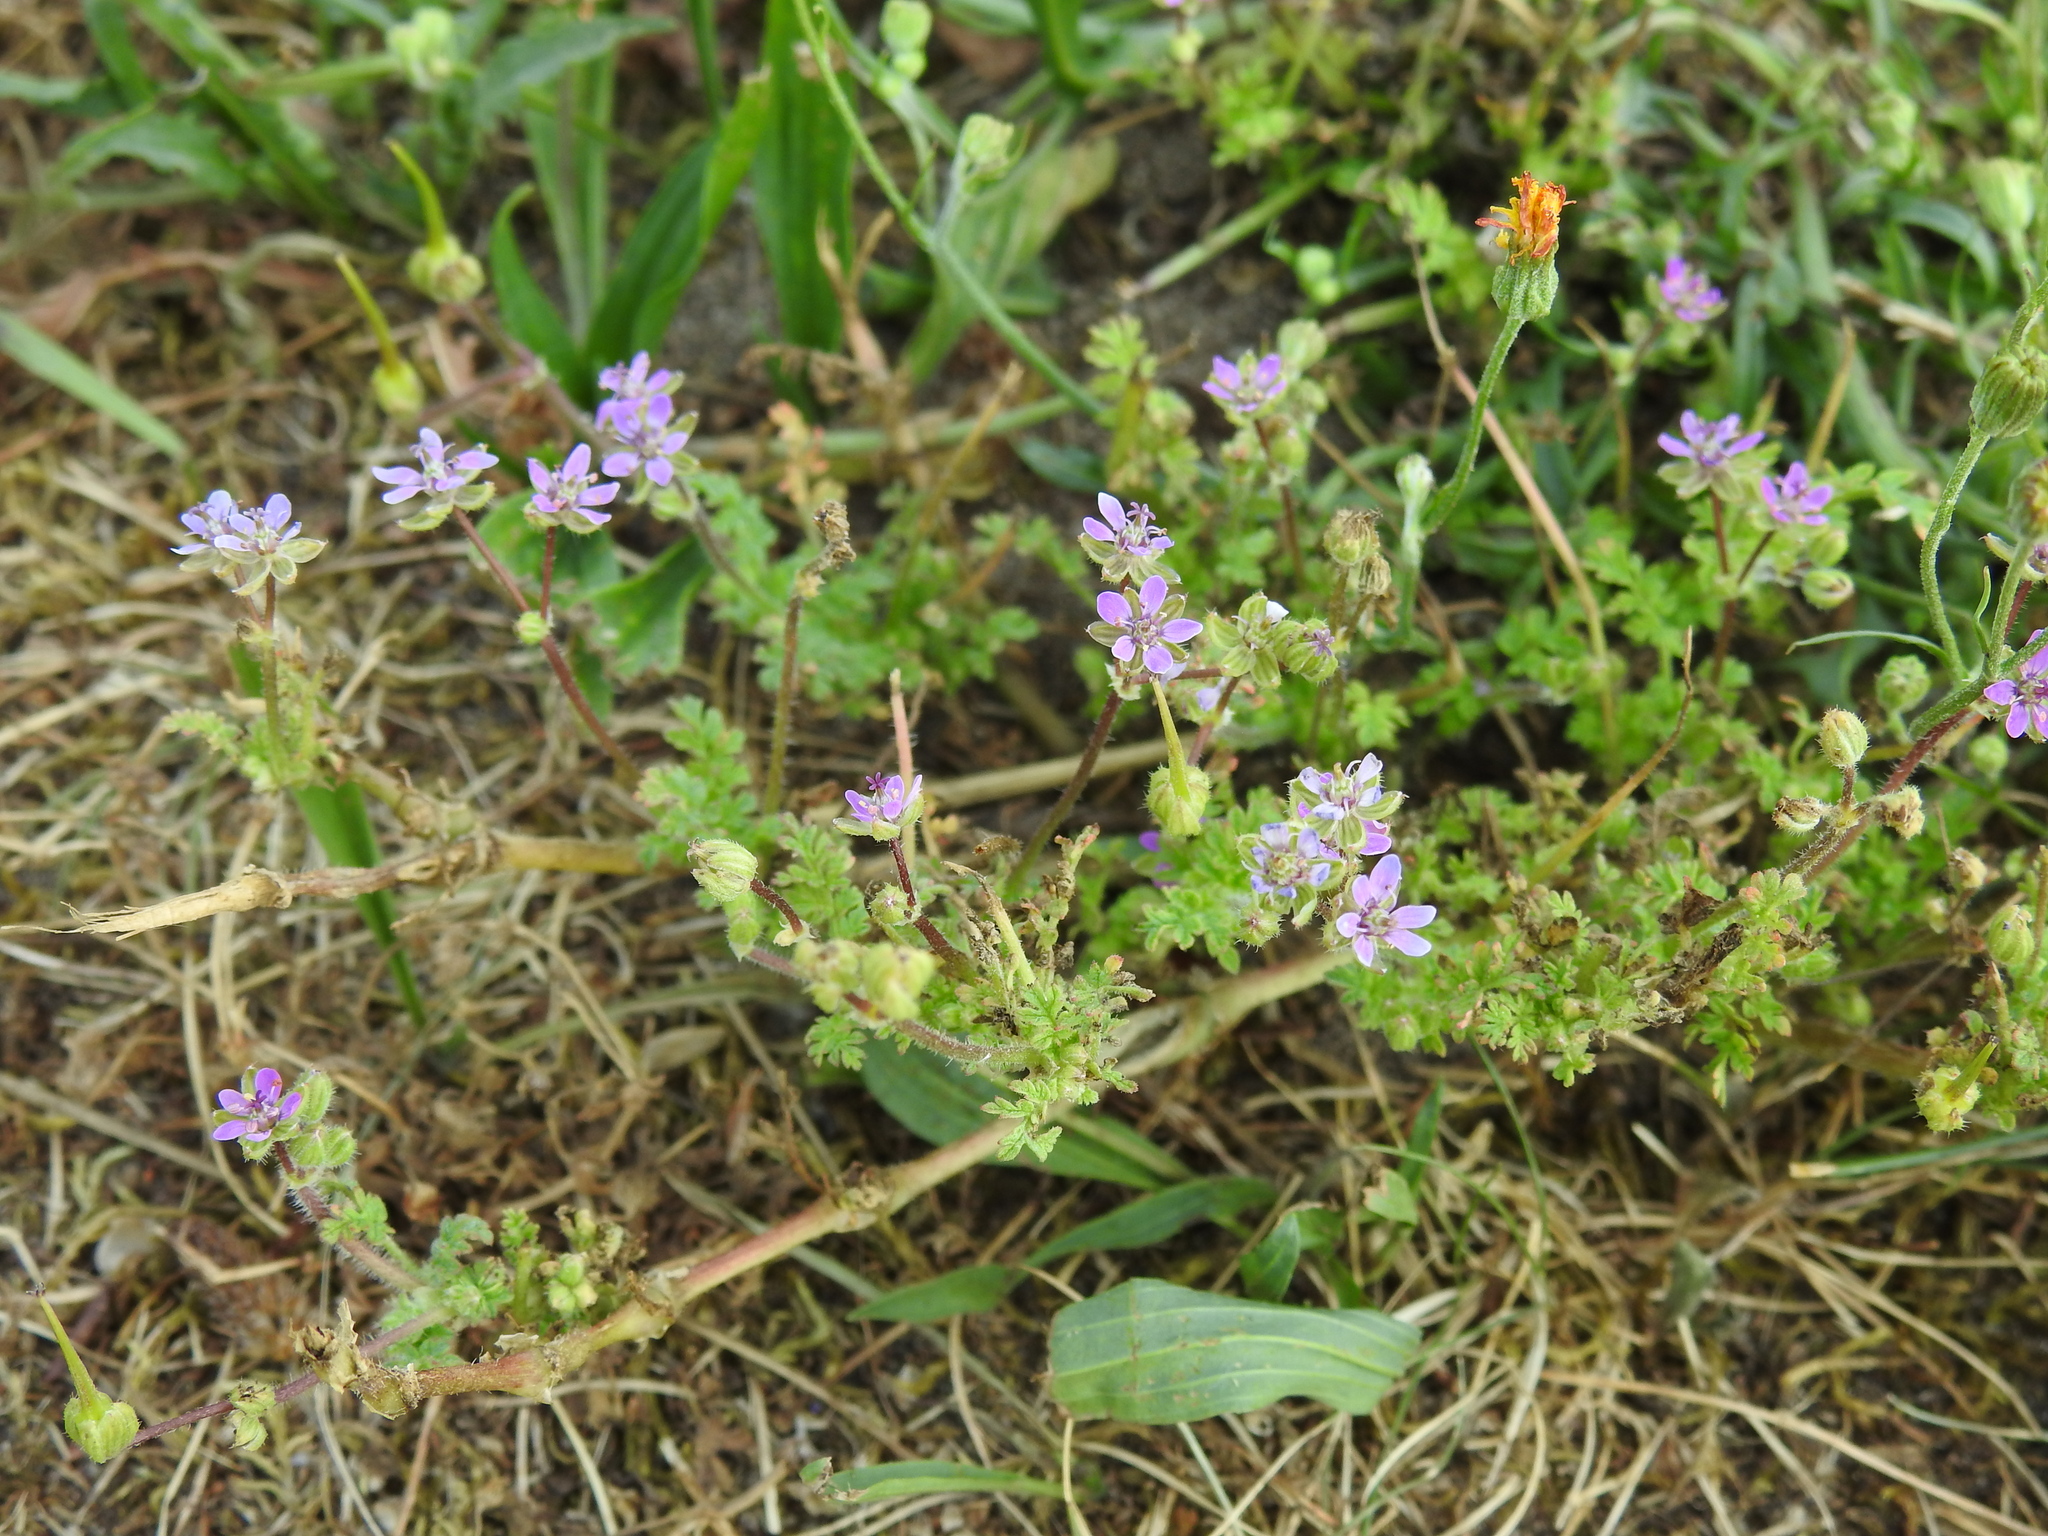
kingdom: Plantae
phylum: Tracheophyta
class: Magnoliopsida
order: Geraniales
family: Geraniaceae
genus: Erodium
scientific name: Erodium cicutarium
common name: Common stork's-bill
